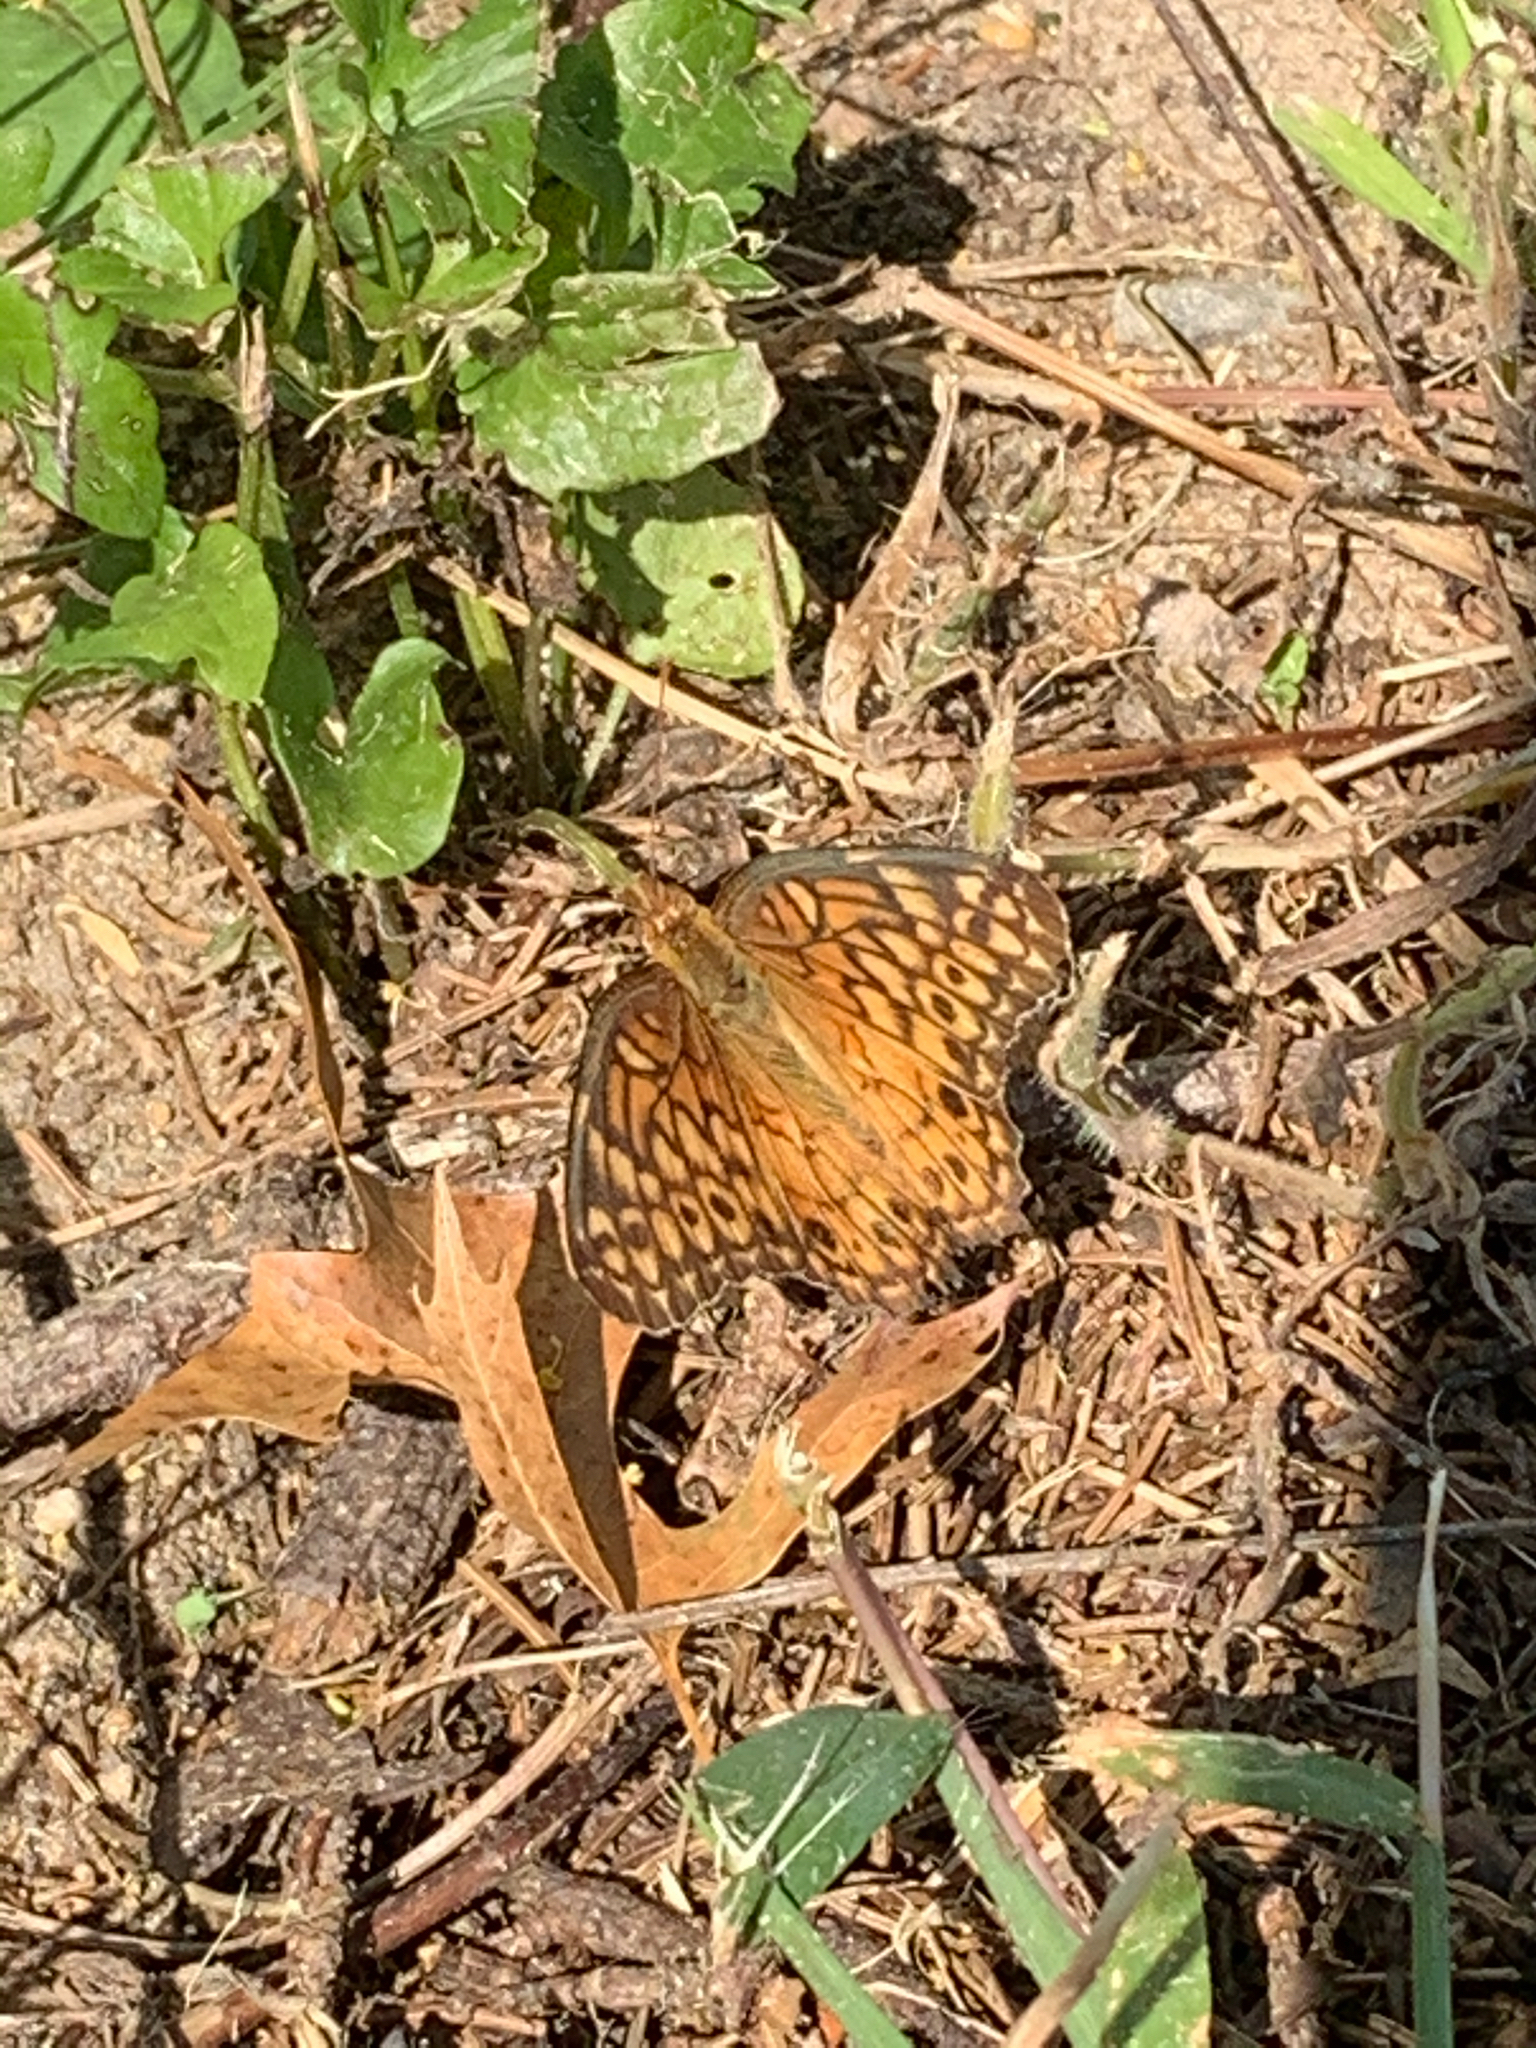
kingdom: Animalia
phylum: Arthropoda
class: Insecta
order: Lepidoptera
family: Nymphalidae
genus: Euptoieta
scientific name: Euptoieta claudia
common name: Variegated fritillary
